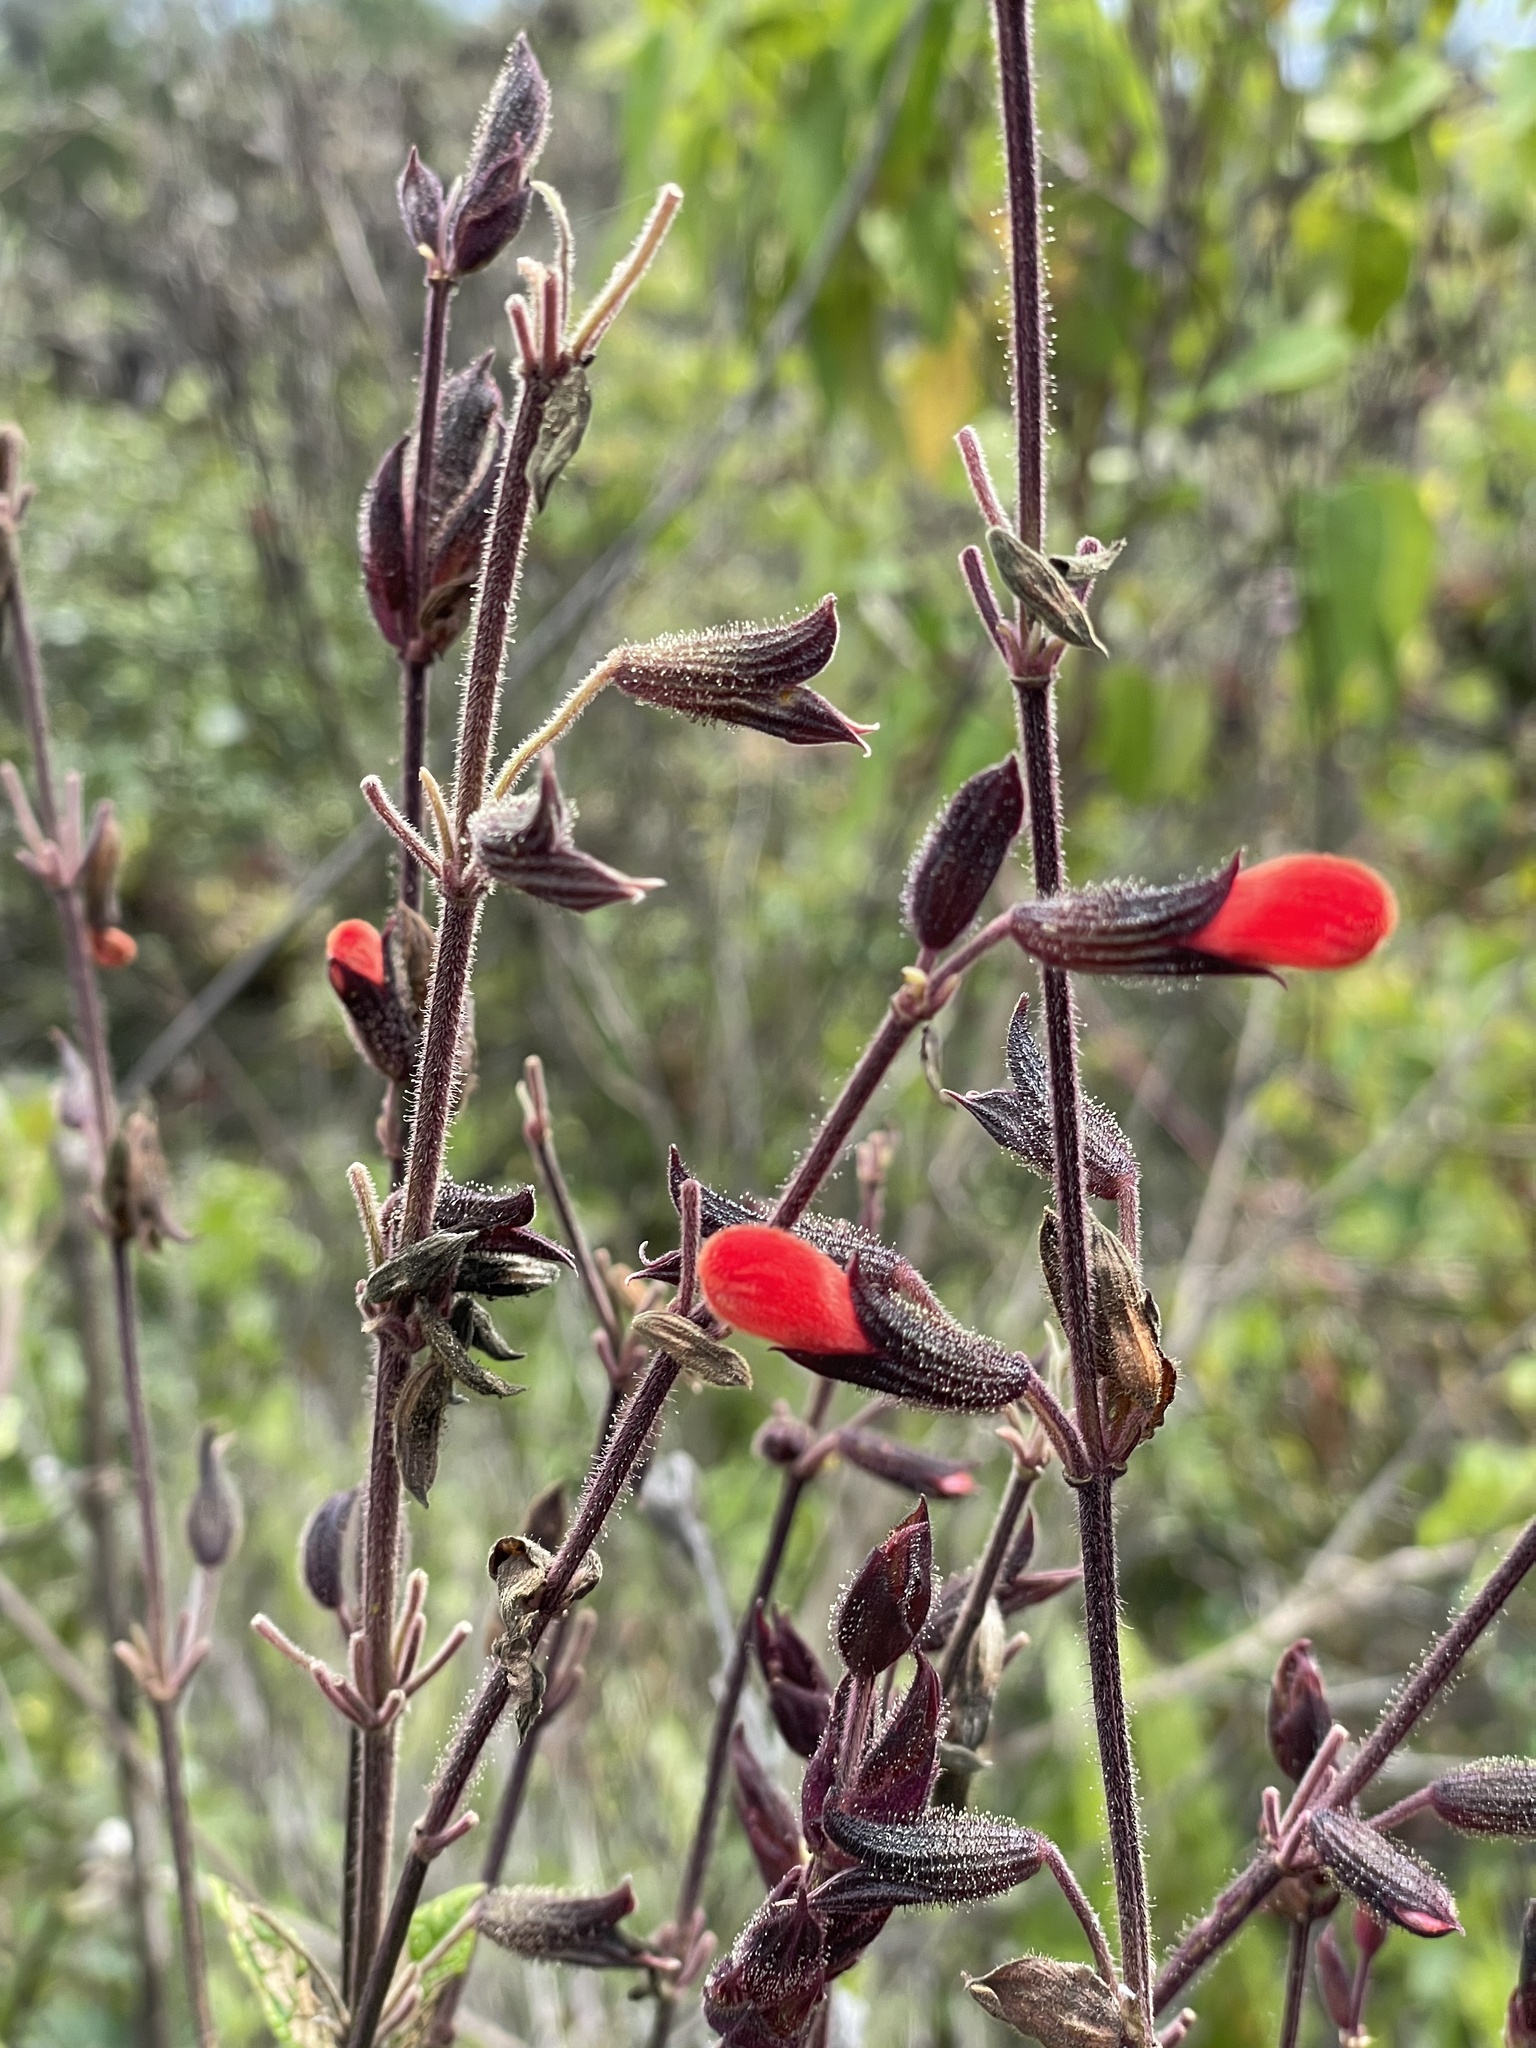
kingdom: Plantae
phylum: Tracheophyta
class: Magnoliopsida
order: Lamiales
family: Lamiaceae
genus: Salvia
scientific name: Salvia hirta
